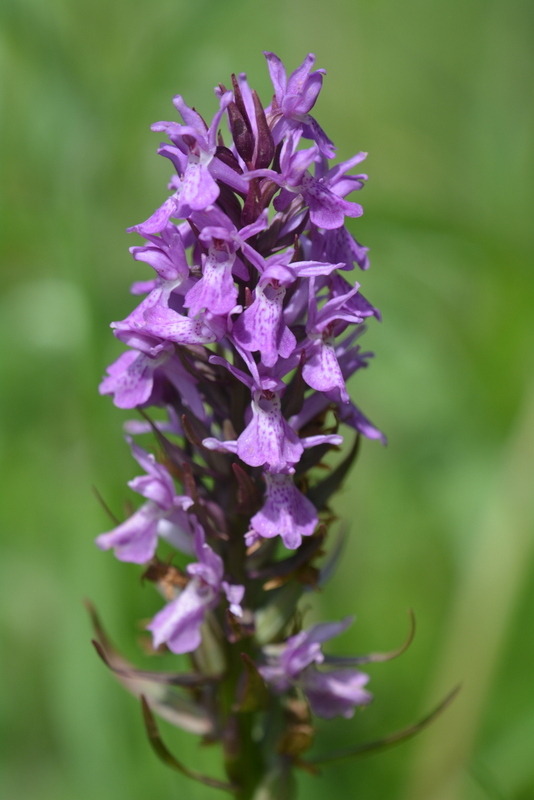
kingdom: Plantae
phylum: Tracheophyta
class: Liliopsida
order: Asparagales
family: Orchidaceae
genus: Dactylorhiza
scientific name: Dactylorhiza majalis
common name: Marsh orchid
